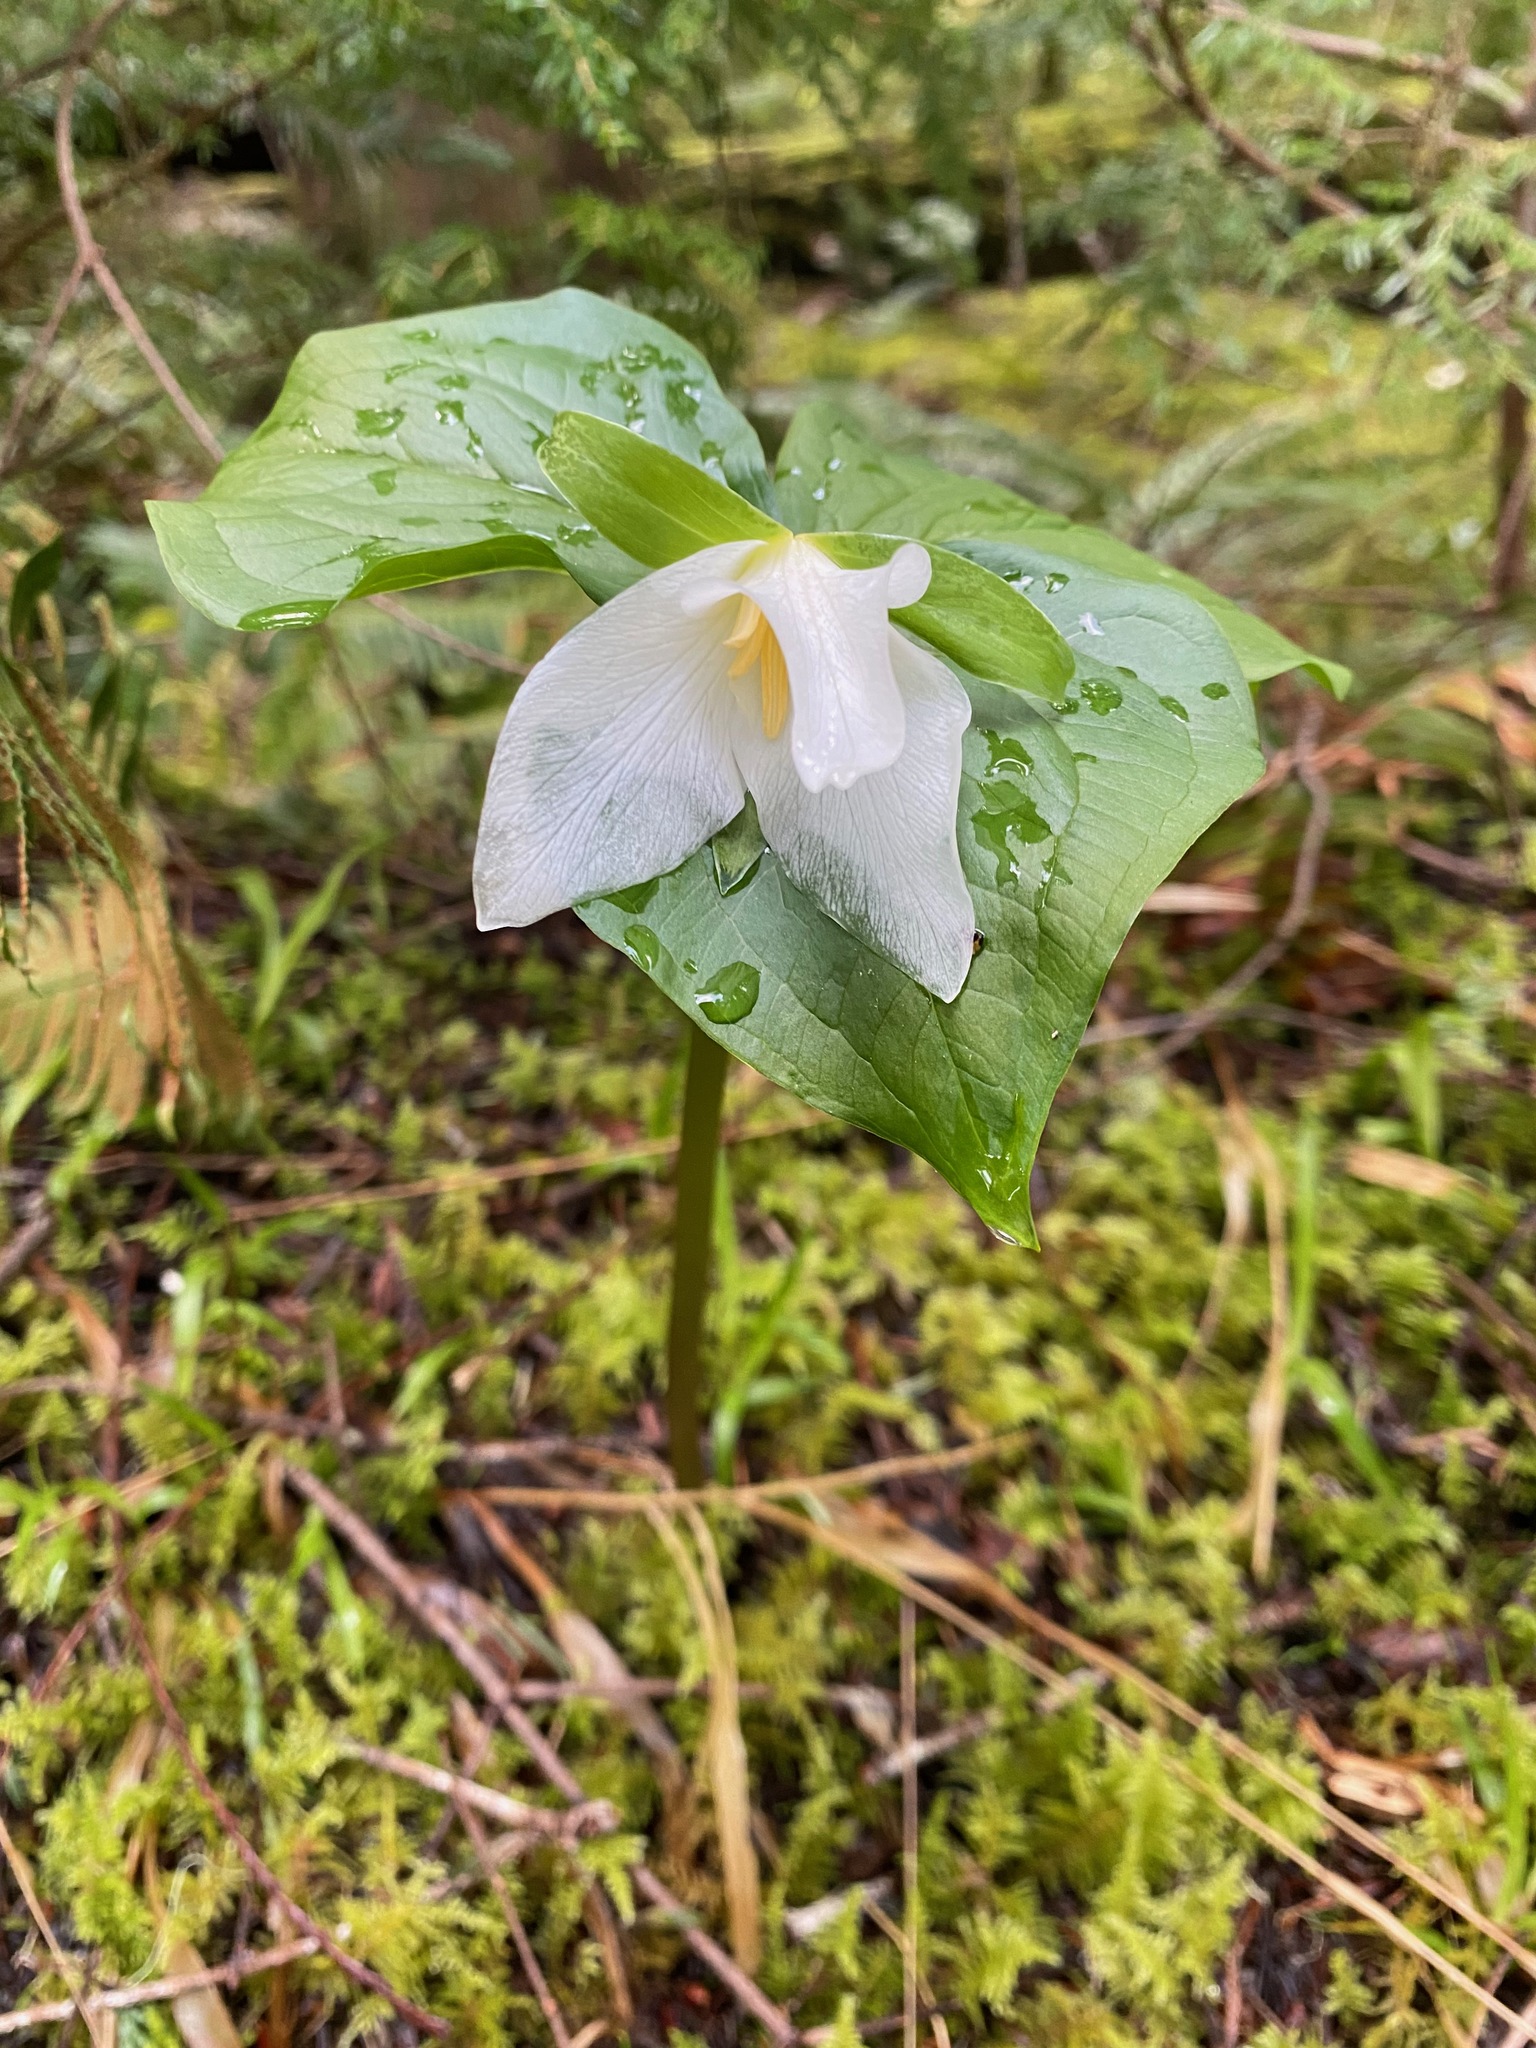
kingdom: Plantae
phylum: Tracheophyta
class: Liliopsida
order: Liliales
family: Melanthiaceae
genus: Trillium
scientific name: Trillium ovatum
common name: Pacific trillium
